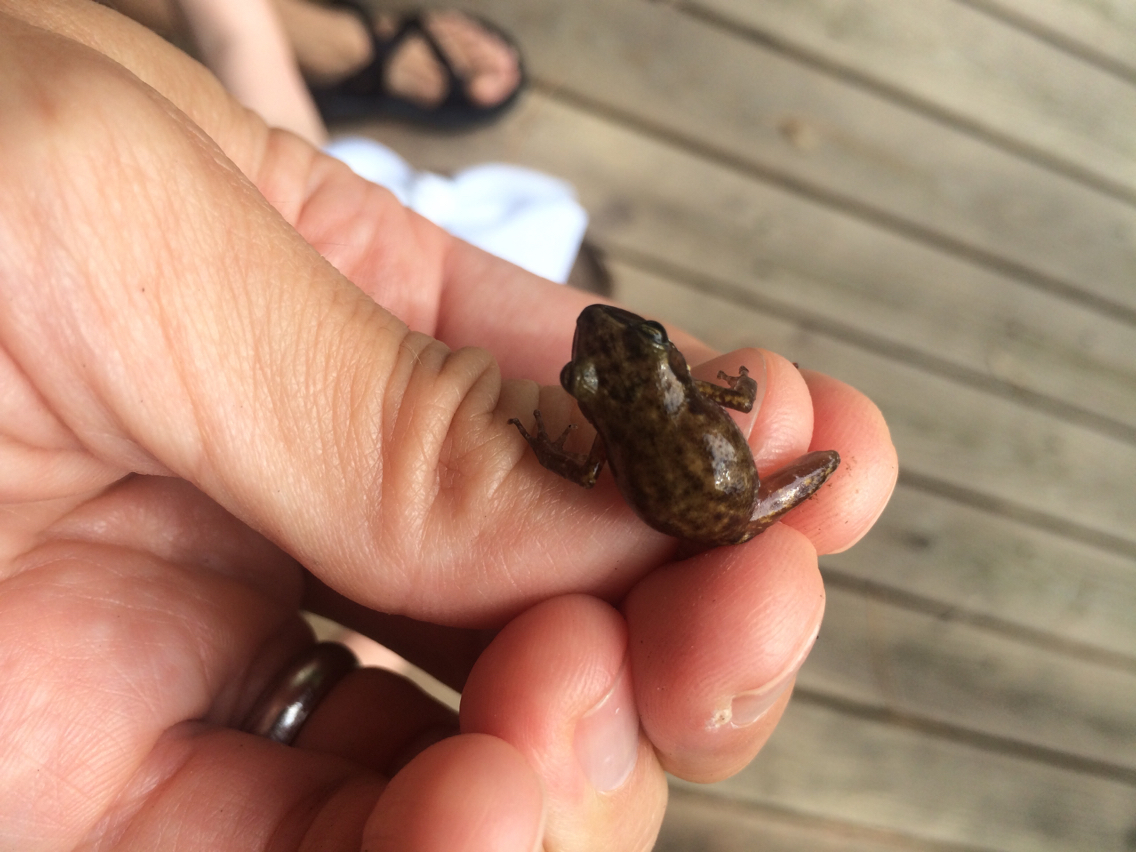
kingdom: Animalia
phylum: Chordata
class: Amphibia
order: Anura
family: Eleutherodactylidae
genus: Eleutherodactylus
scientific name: Eleutherodactylus campi
